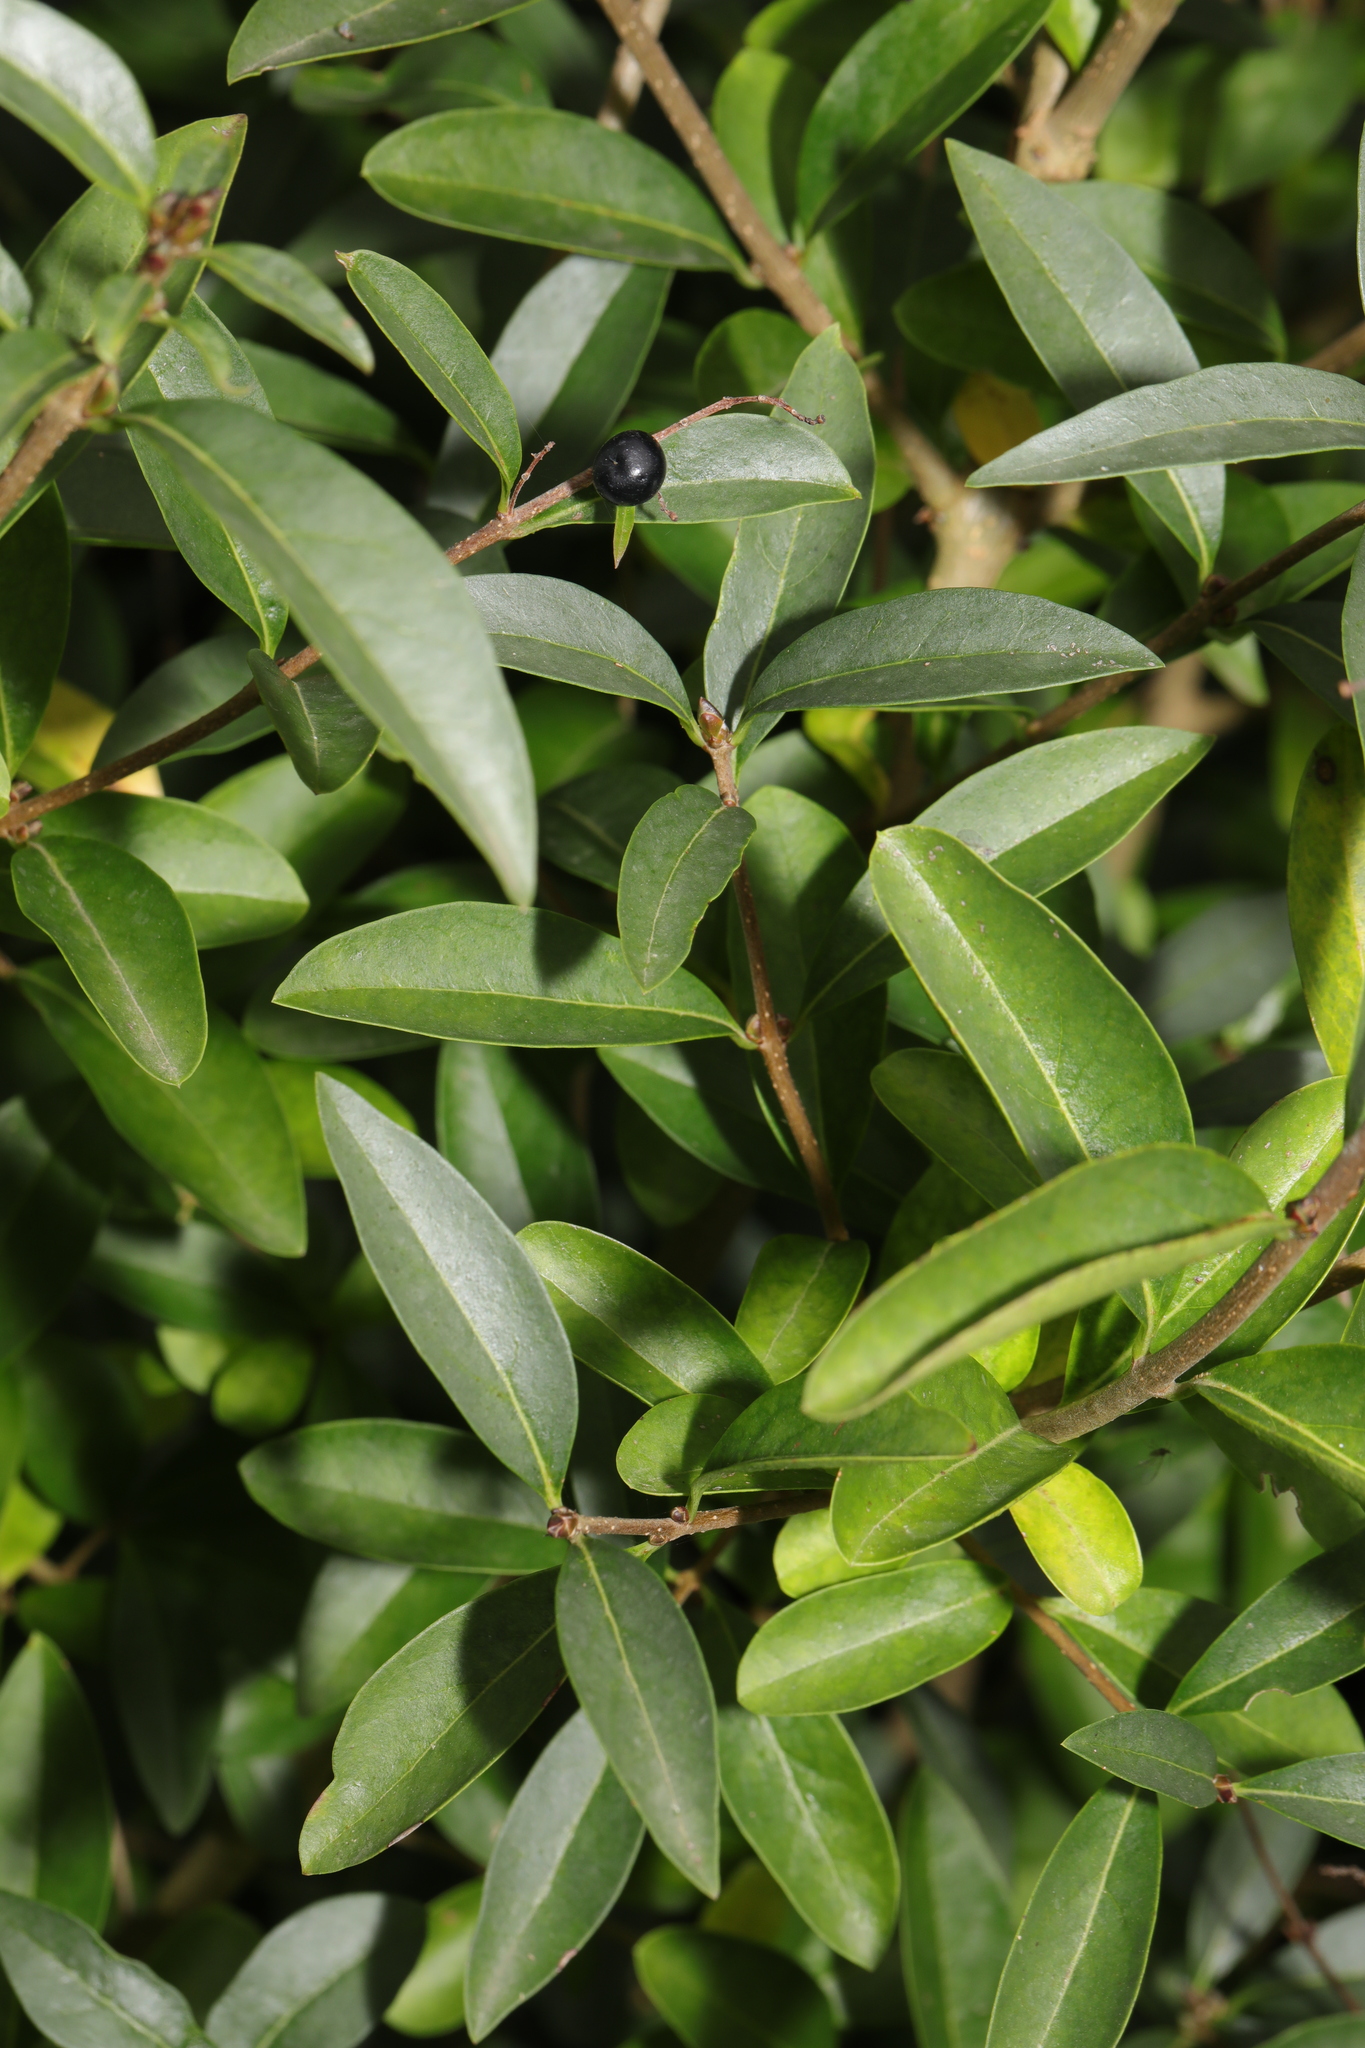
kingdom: Plantae
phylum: Tracheophyta
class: Magnoliopsida
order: Lamiales
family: Oleaceae
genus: Ligustrum
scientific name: Ligustrum vulgare
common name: Wild privet
